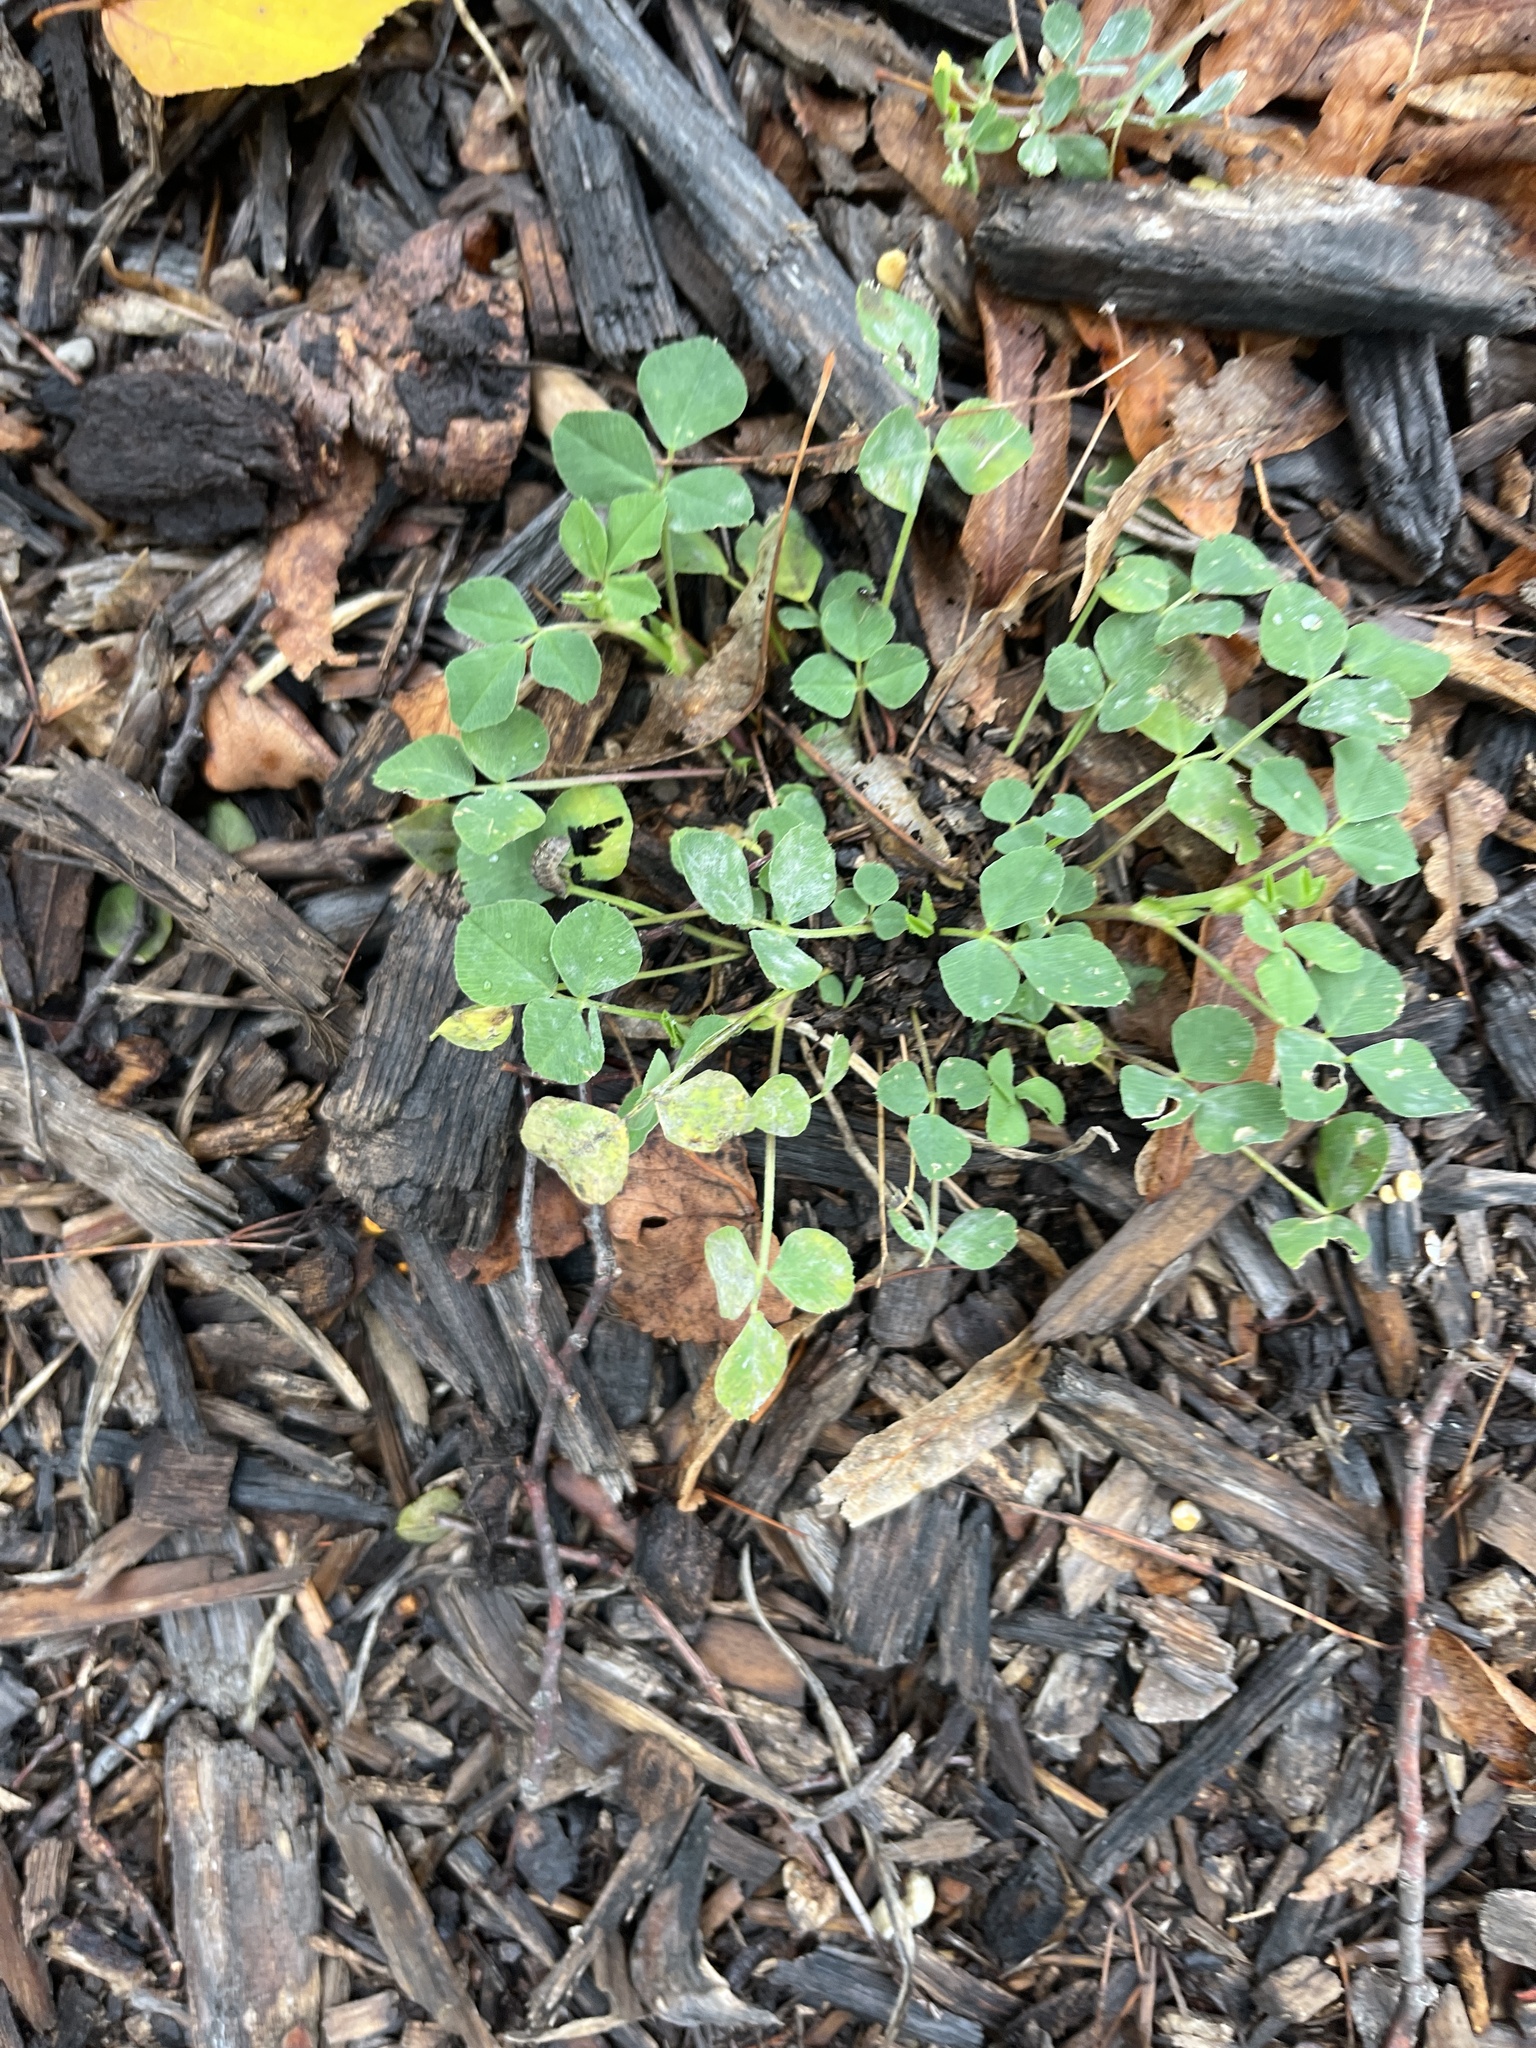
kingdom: Plantae
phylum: Tracheophyta
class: Magnoliopsida
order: Fabales
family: Fabaceae
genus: Medicago
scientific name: Medicago lupulina
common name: Black medick
